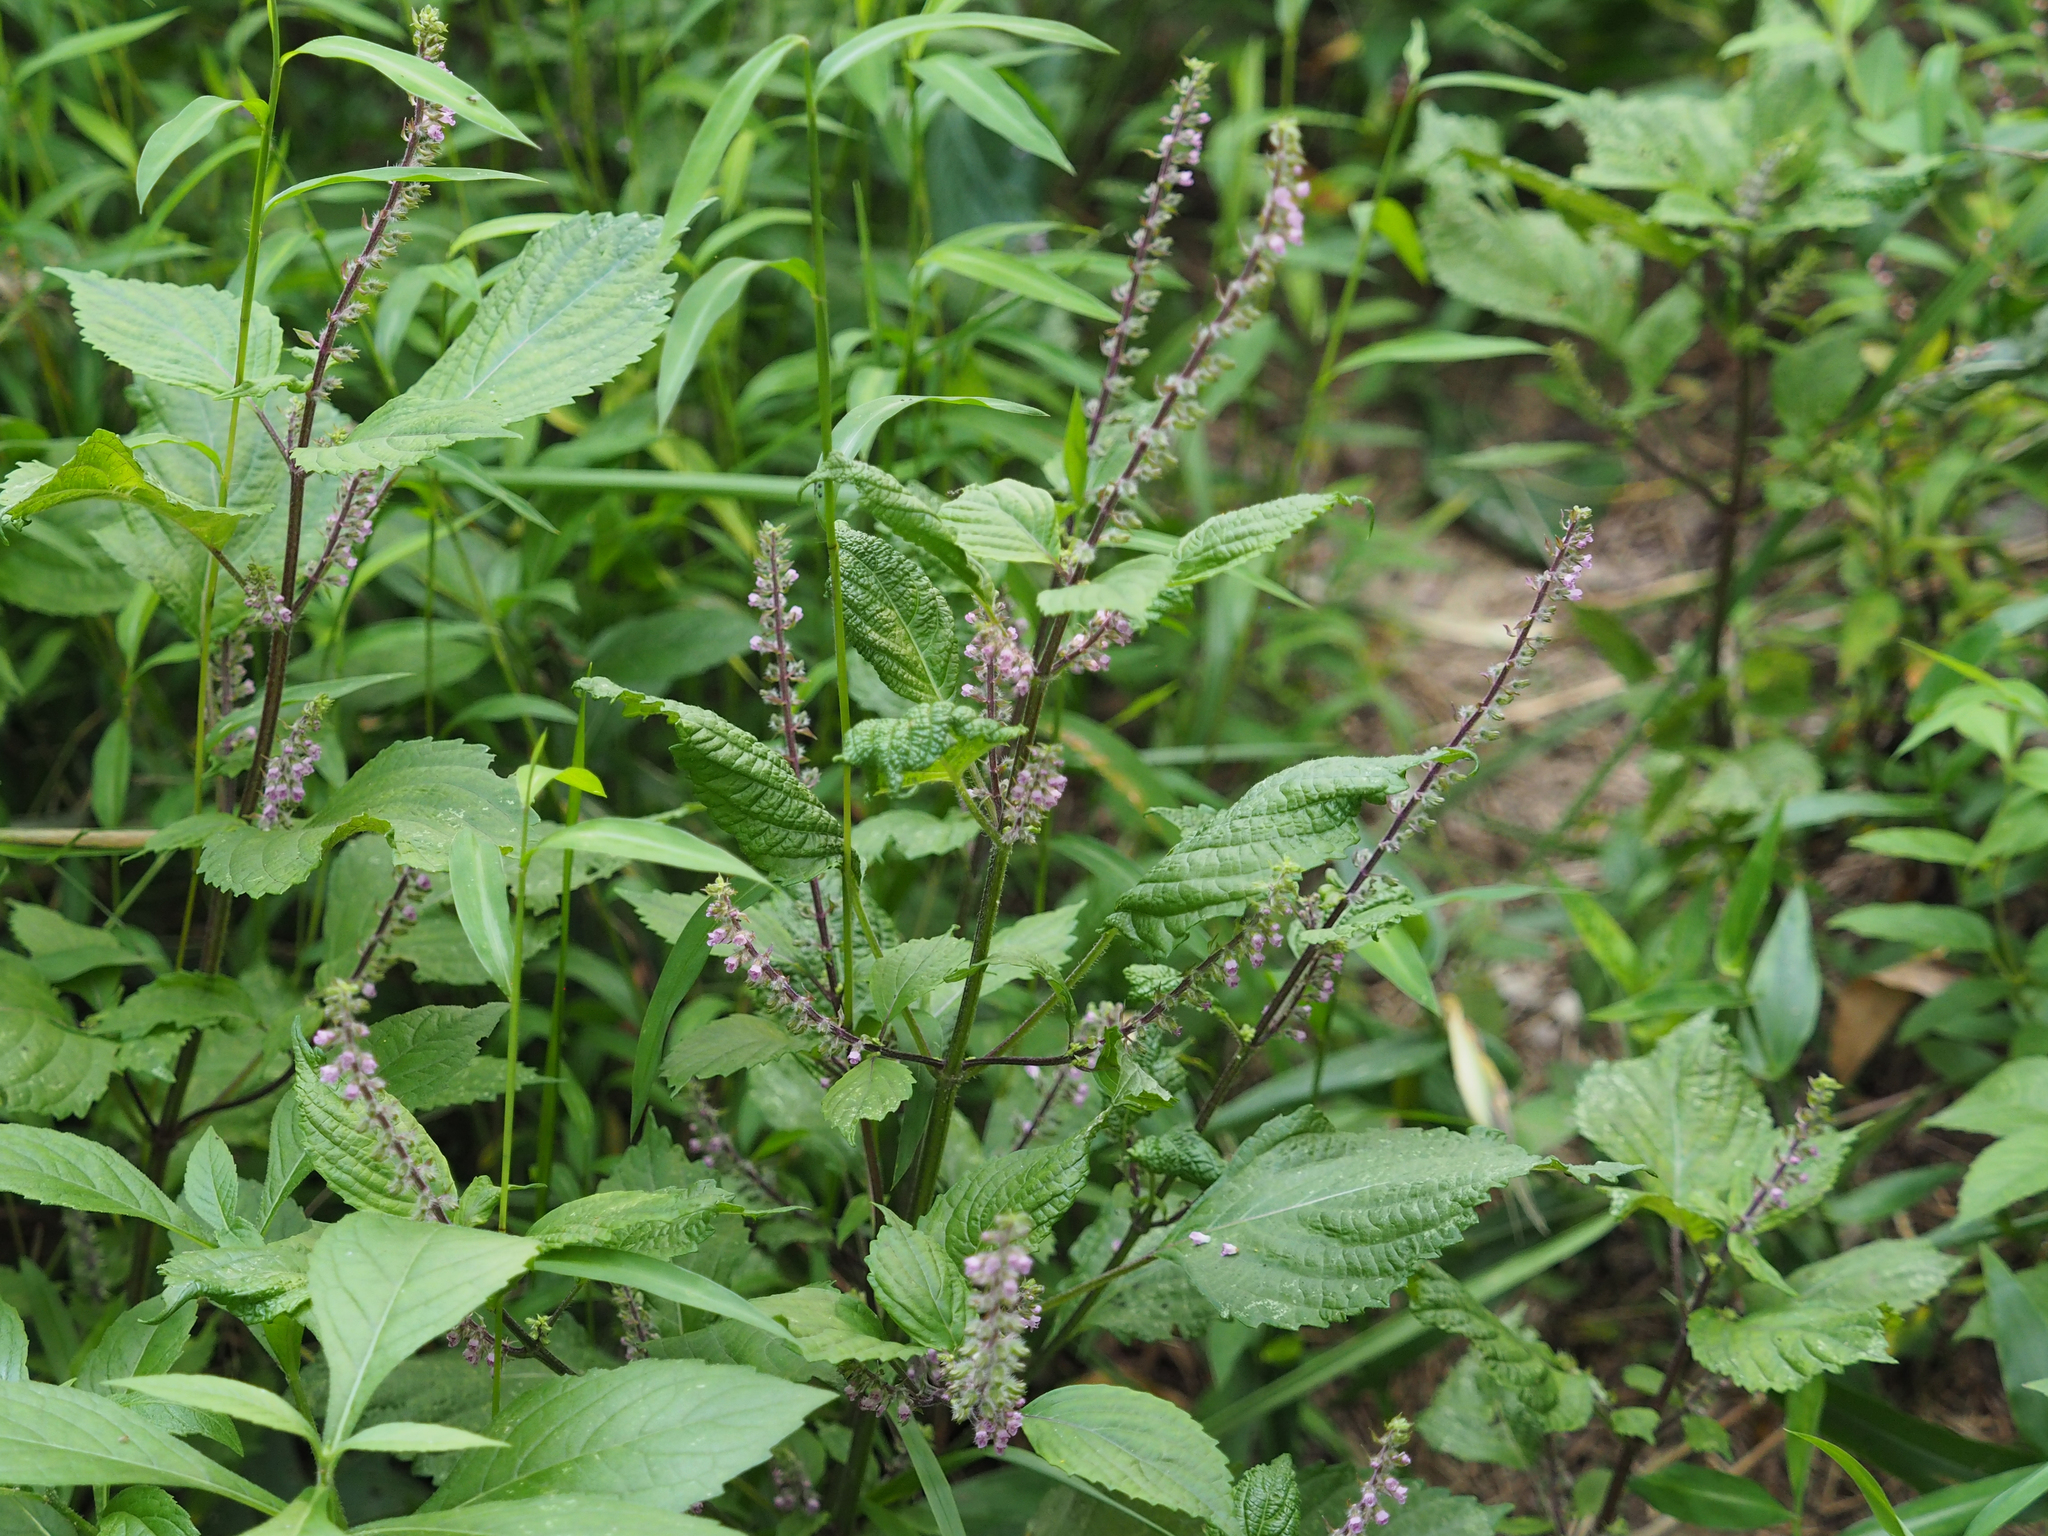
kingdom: Plantae
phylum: Tracheophyta
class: Magnoliopsida
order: Lamiales
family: Lamiaceae
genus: Perilla
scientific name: Perilla frutescens
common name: Perilla
